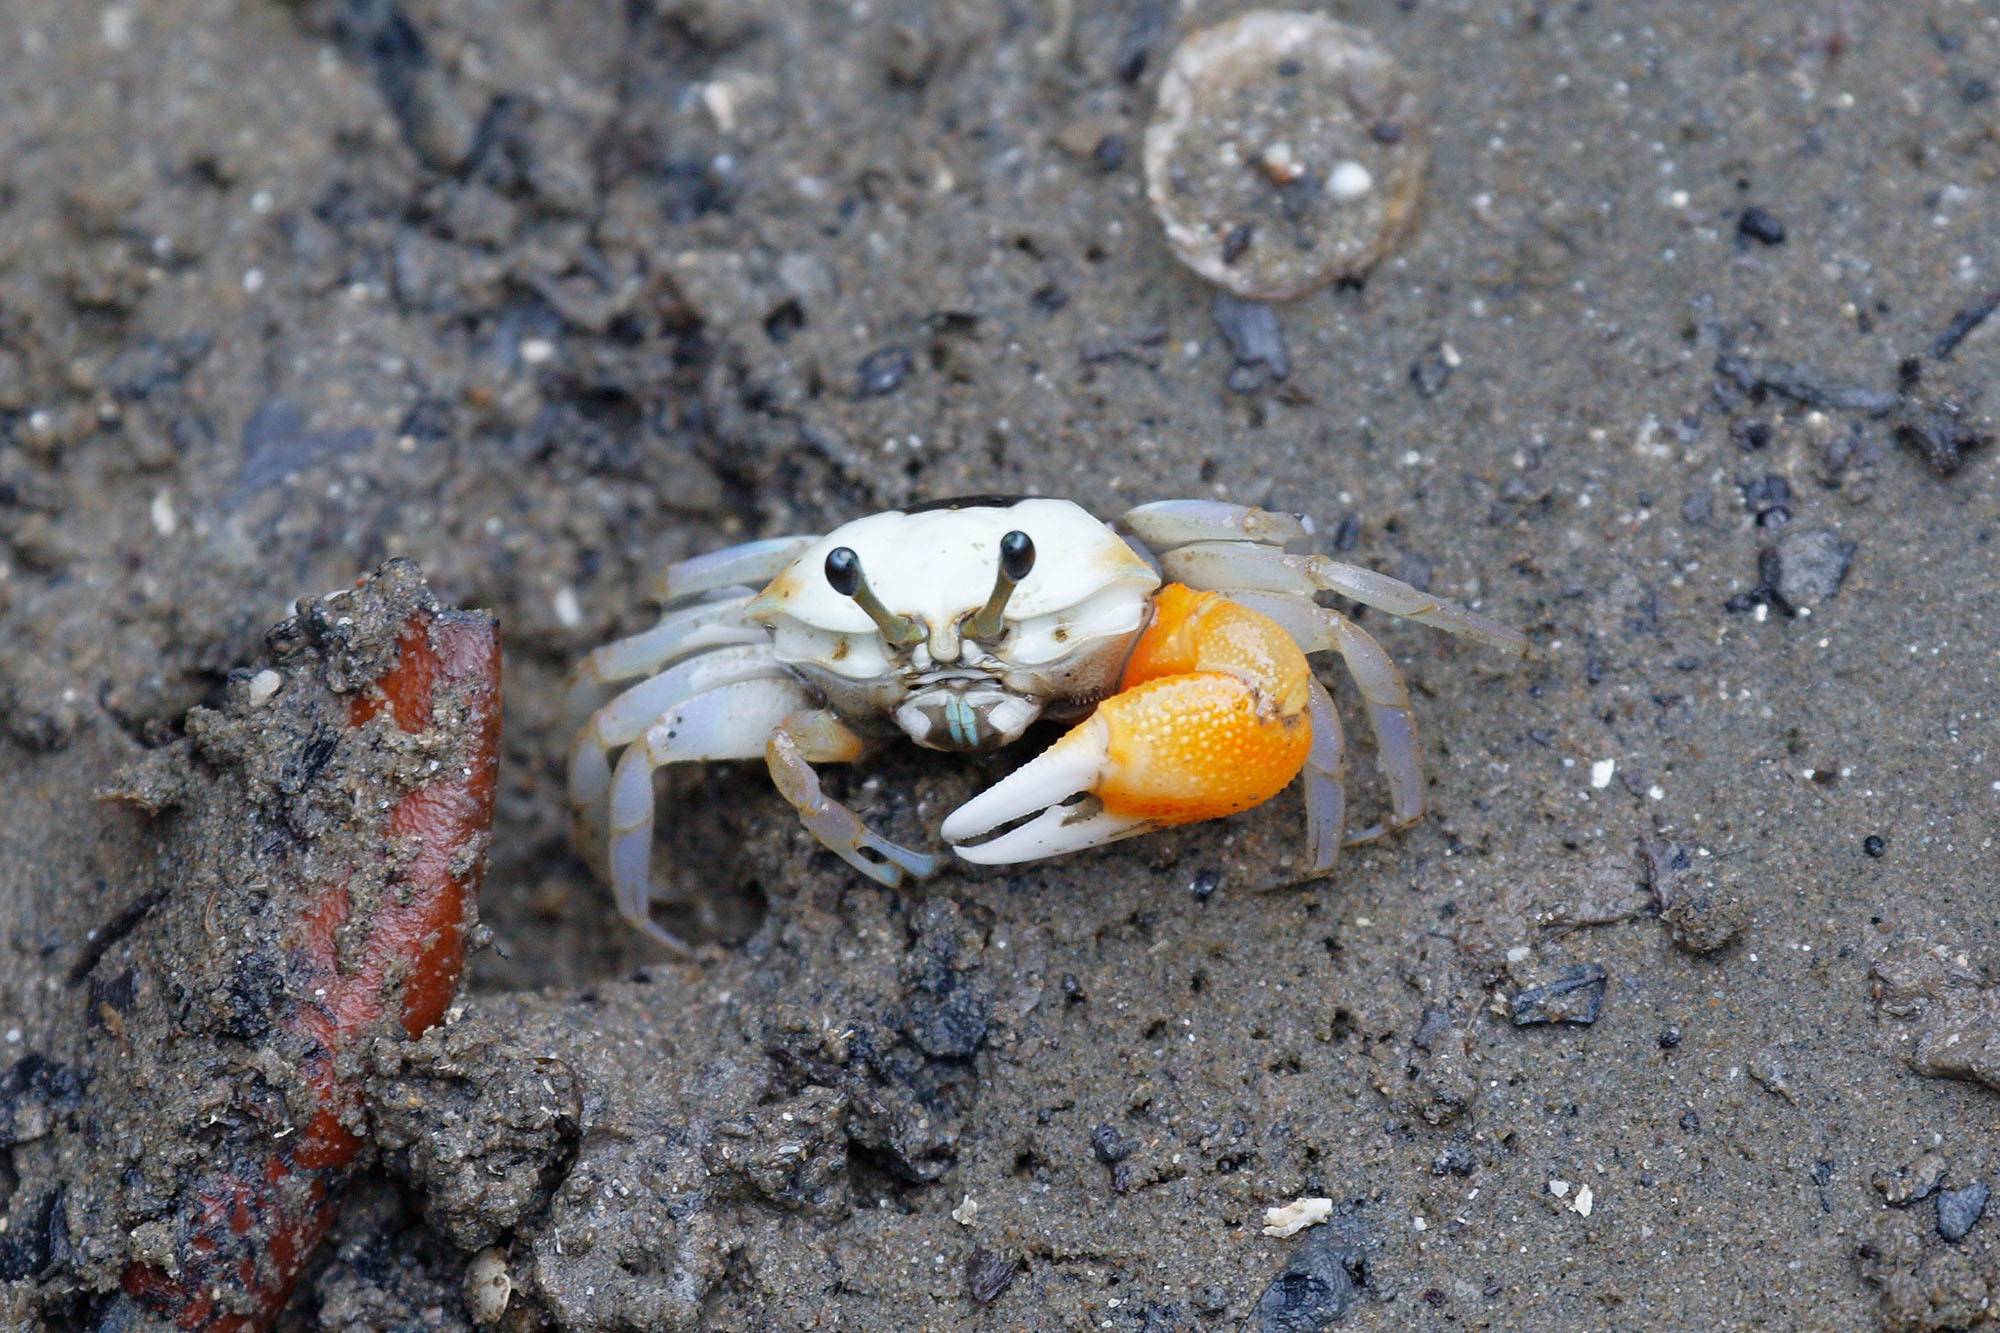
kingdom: Animalia
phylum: Arthropoda
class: Malacostraca
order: Decapoda
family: Ocypodidae
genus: Tubuca
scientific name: Tubuca coarctata
